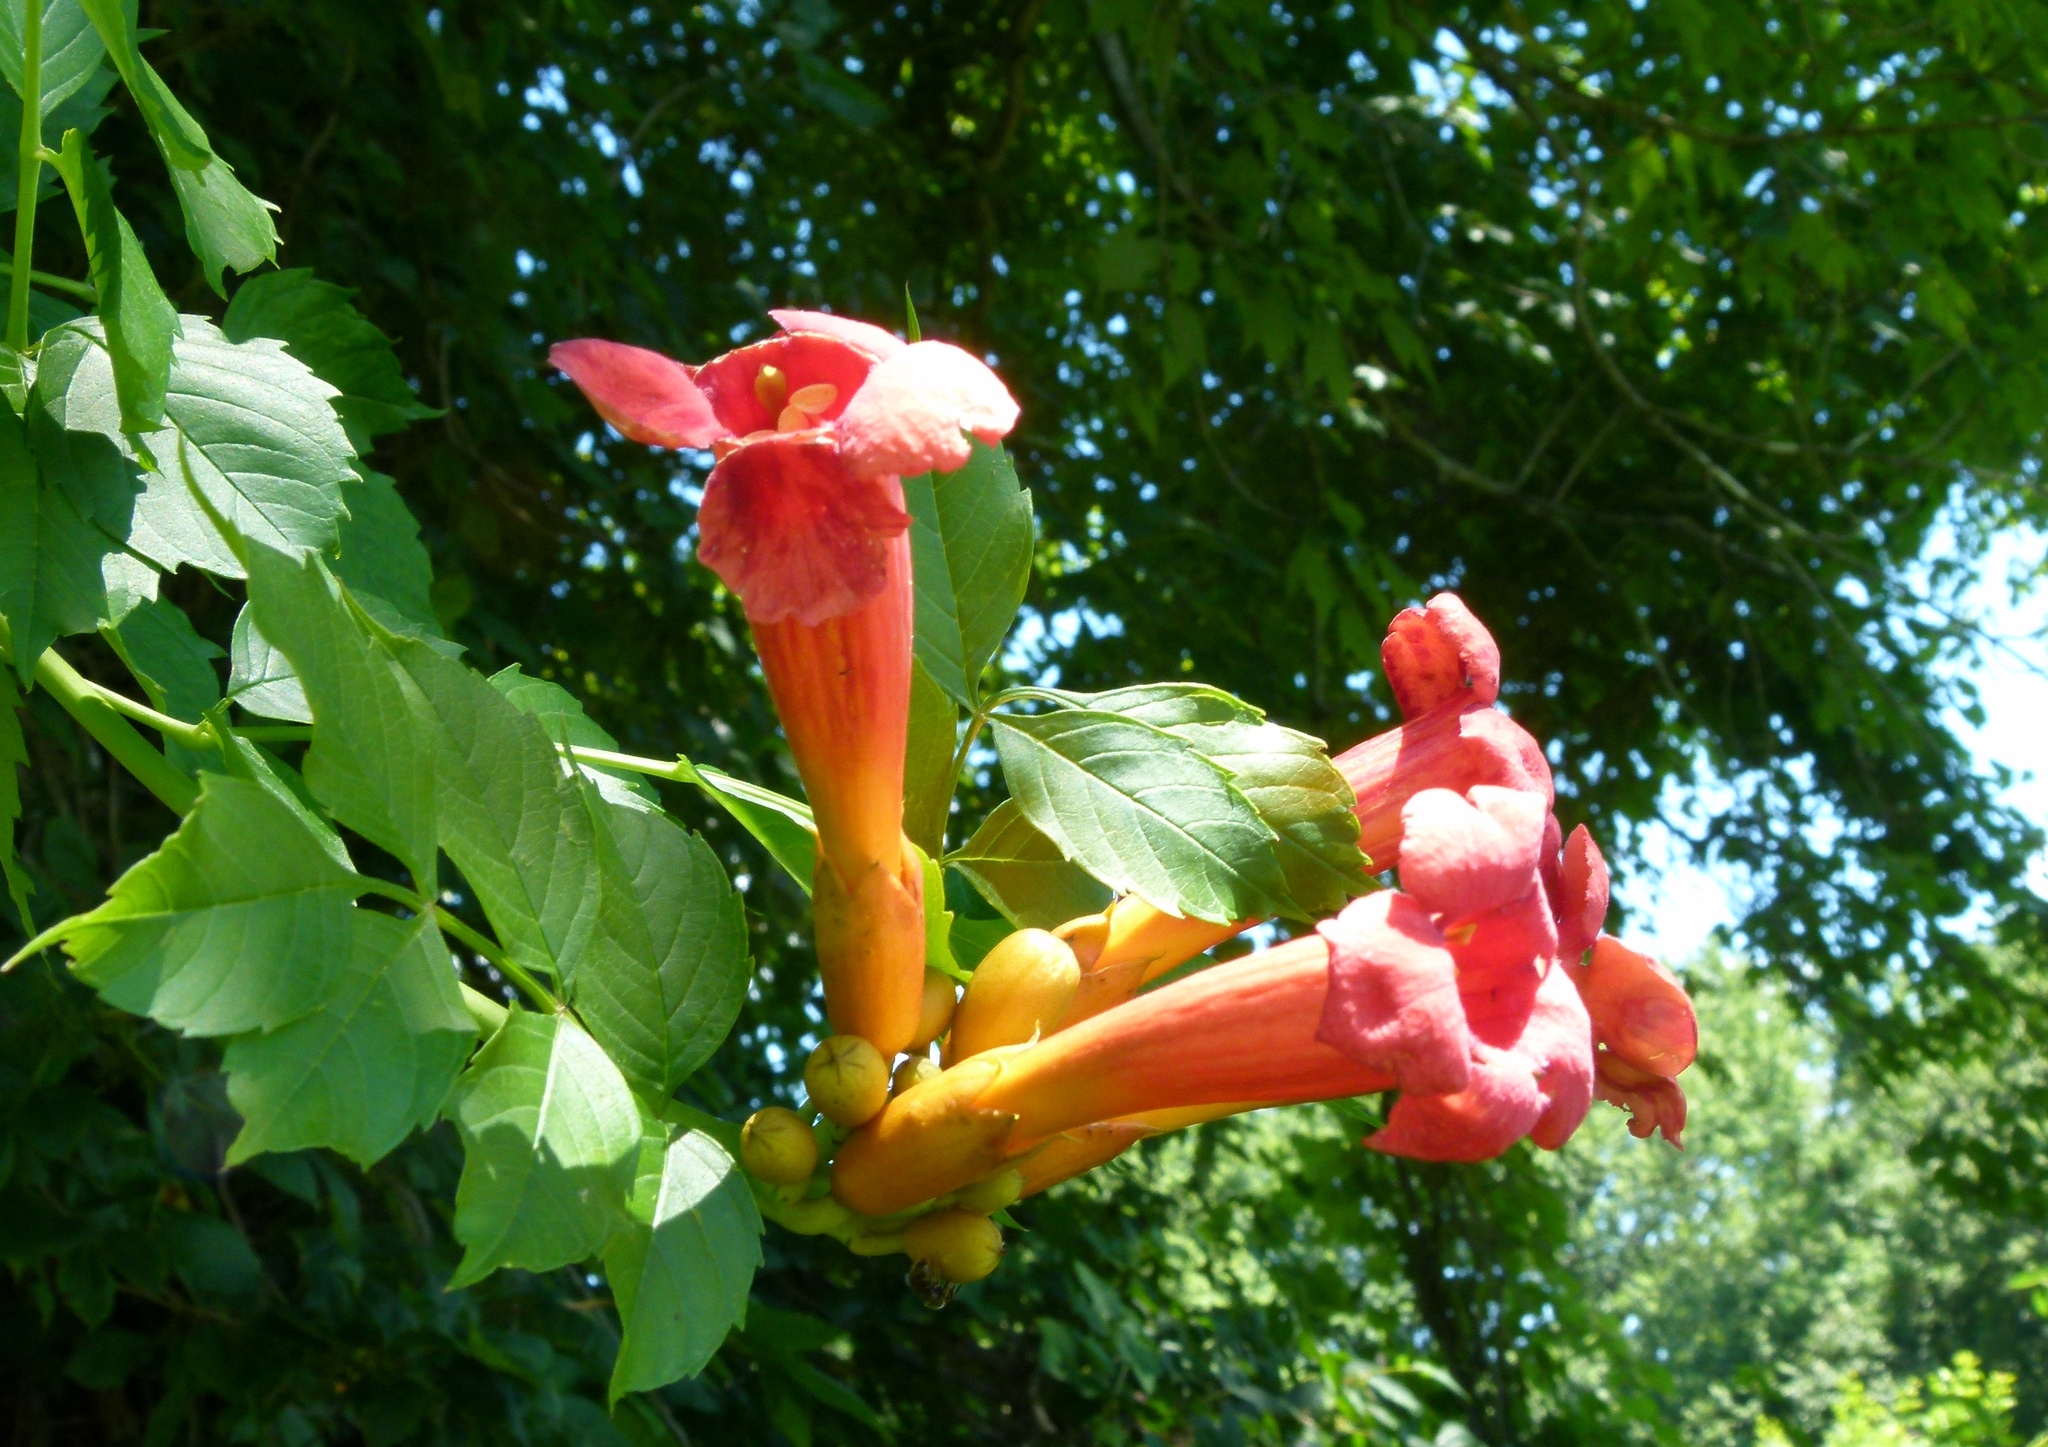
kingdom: Plantae
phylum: Tracheophyta
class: Magnoliopsida
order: Lamiales
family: Bignoniaceae
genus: Campsis
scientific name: Campsis radicans
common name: Trumpet-creeper
